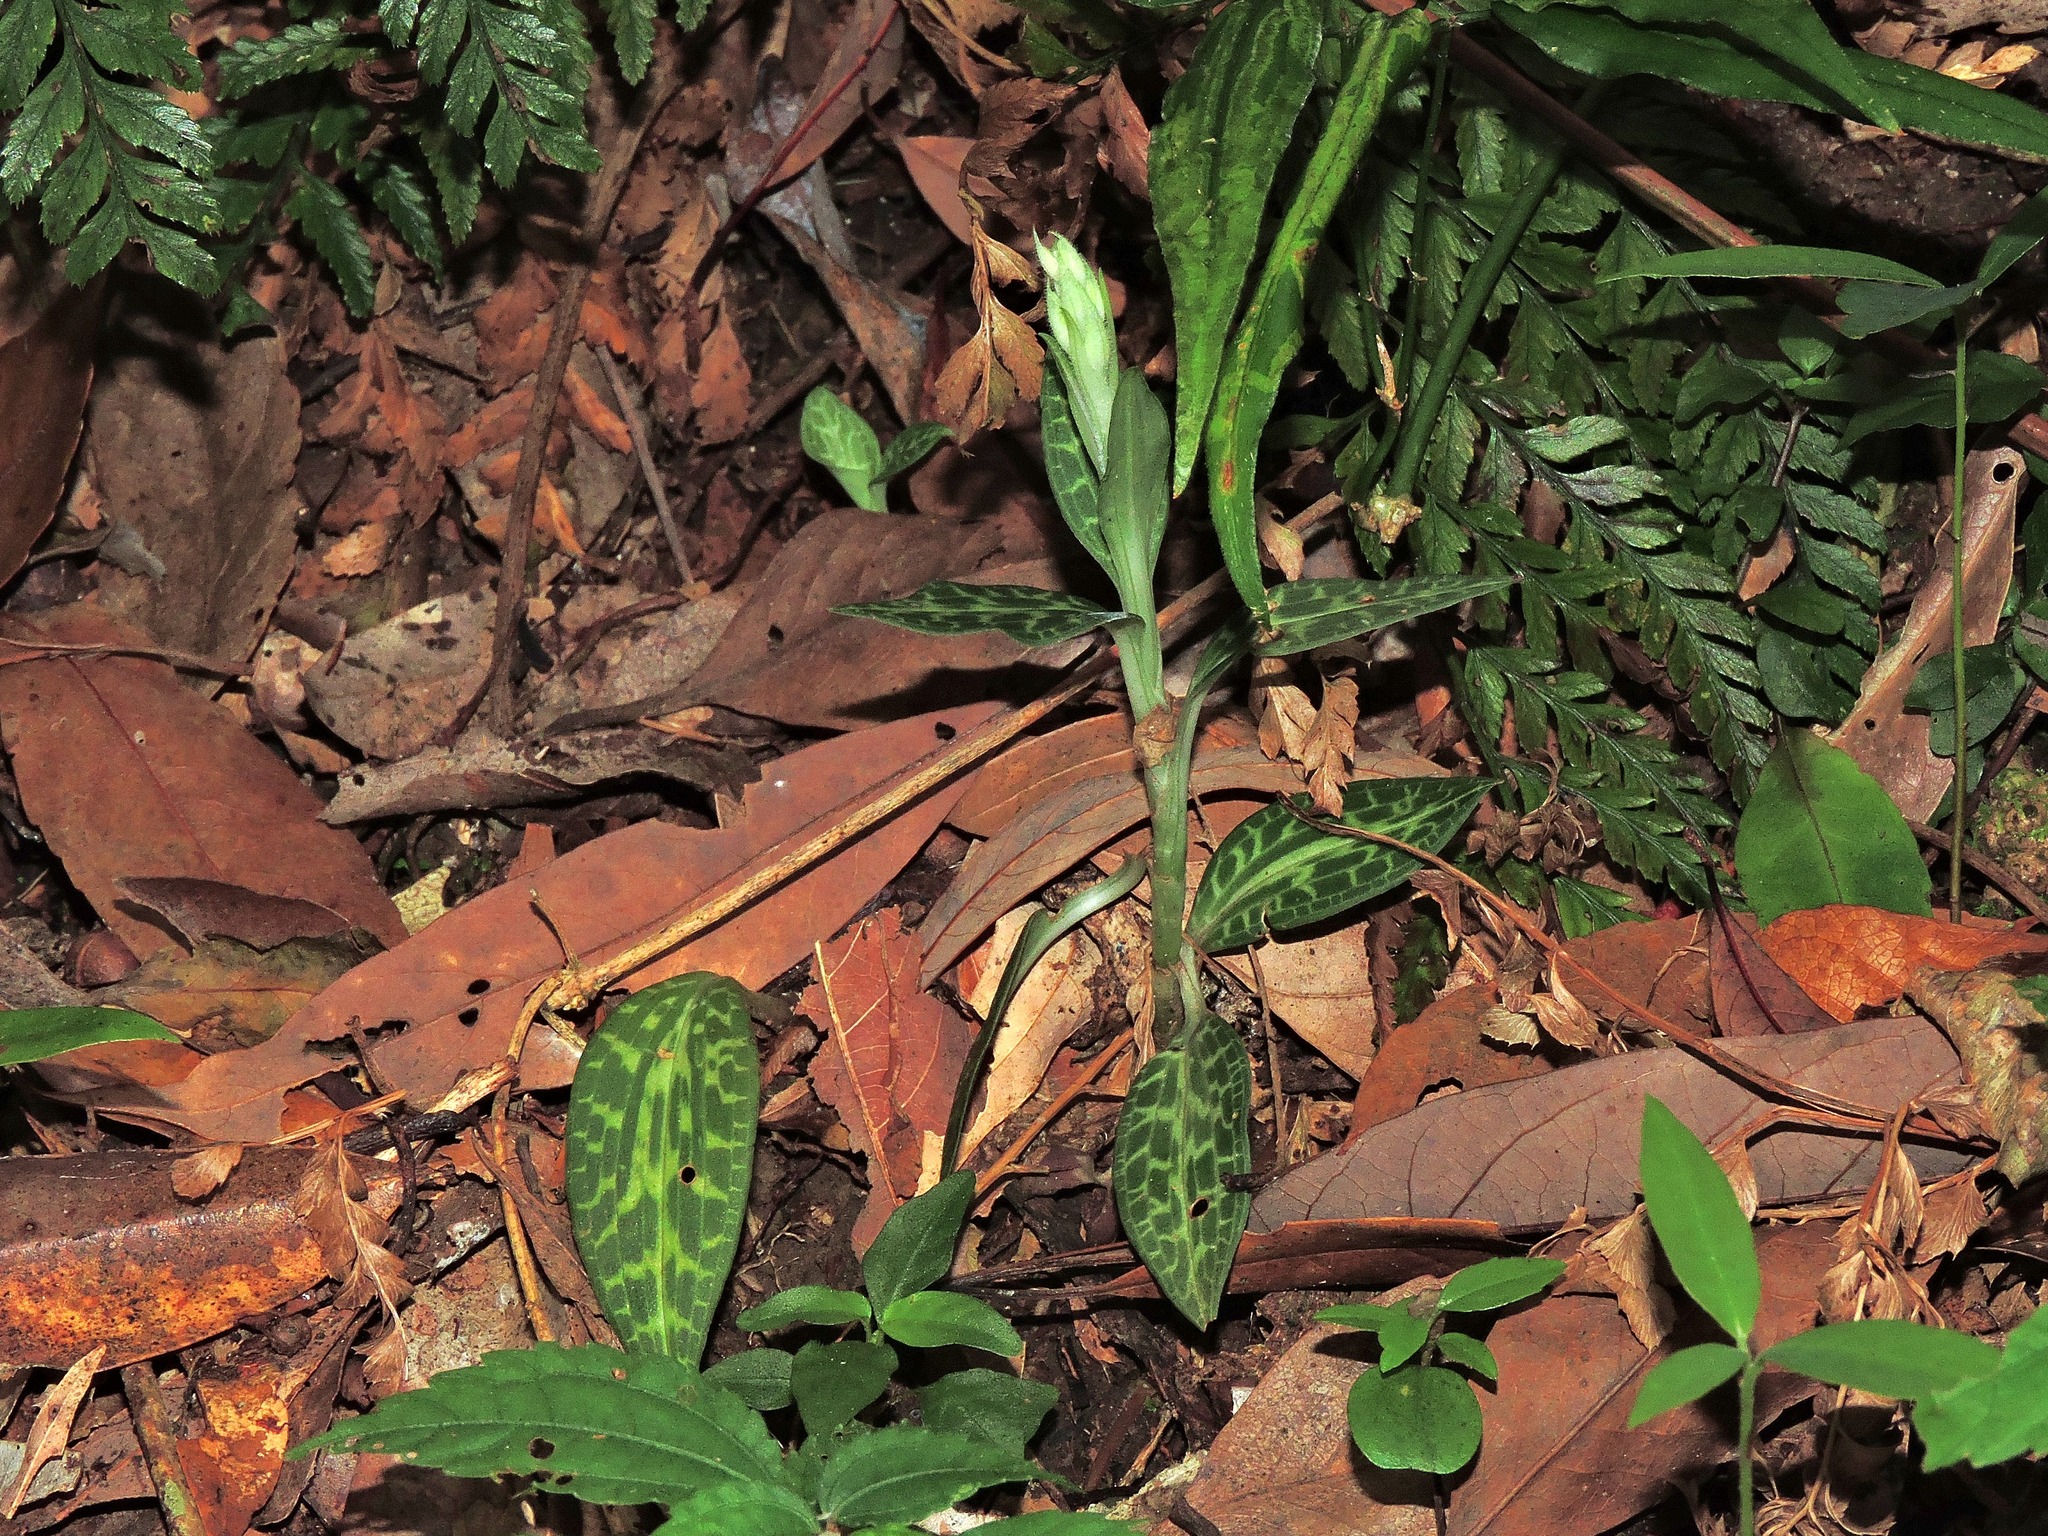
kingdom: Plantae
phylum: Tracheophyta
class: Liliopsida
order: Asparagales
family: Orchidaceae
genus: Goodyera
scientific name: Goodyera schlechtendaliana
